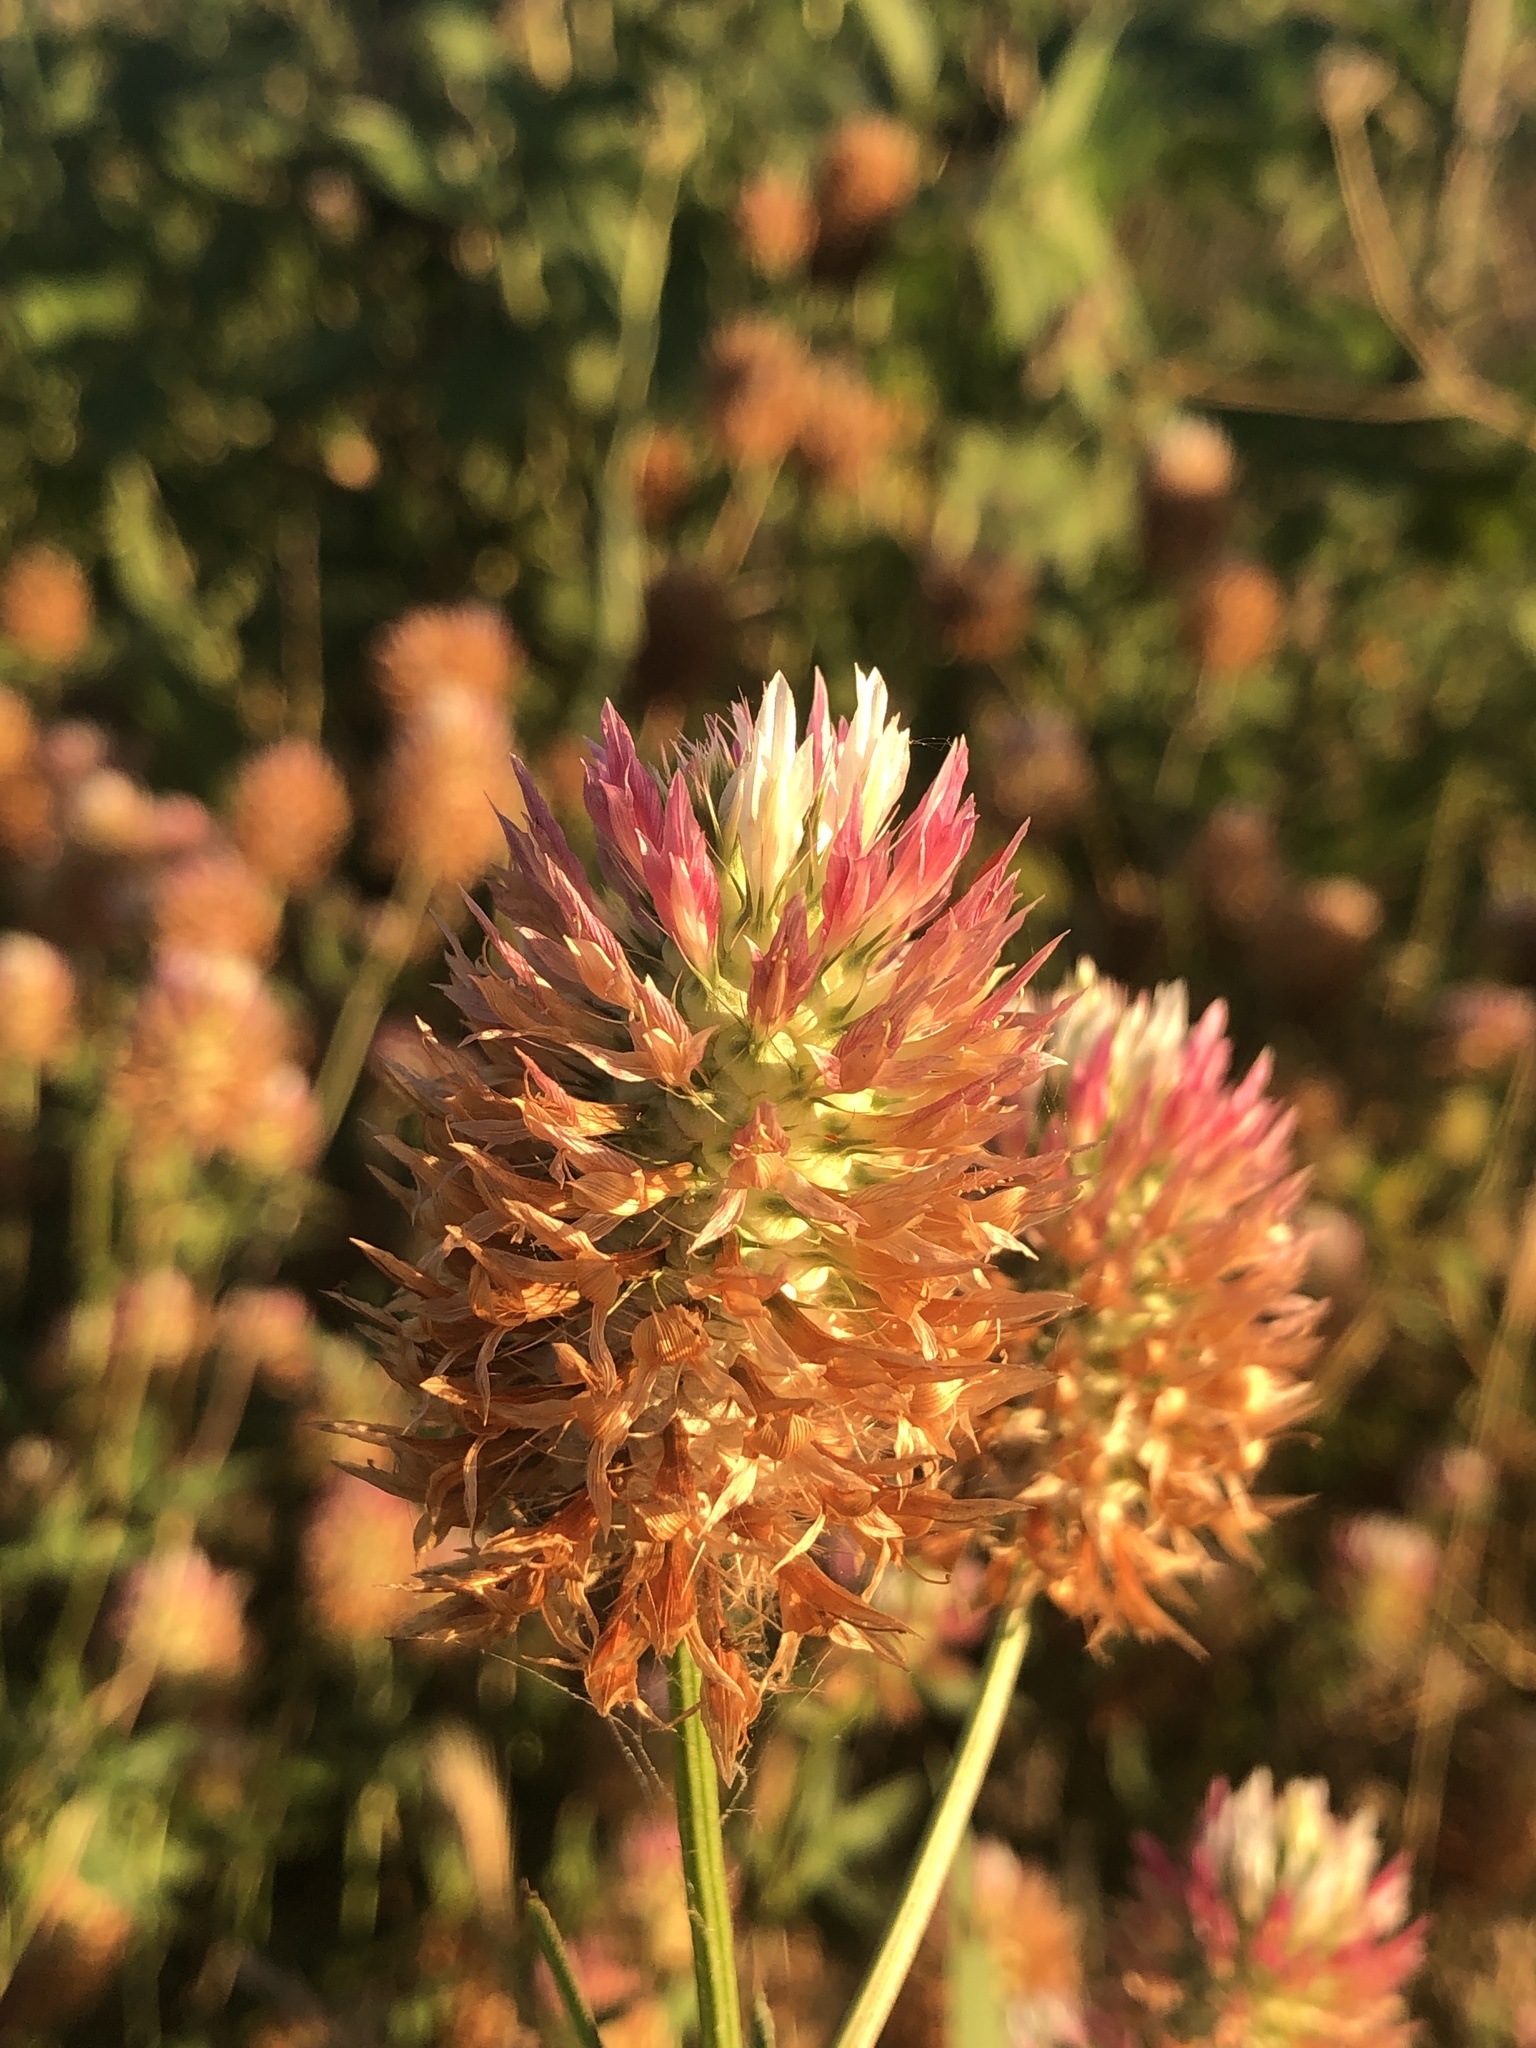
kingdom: Plantae
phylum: Tracheophyta
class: Magnoliopsida
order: Fabales
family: Fabaceae
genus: Trifolium
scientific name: Trifolium vesiculosum
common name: Arrowleaf clover
